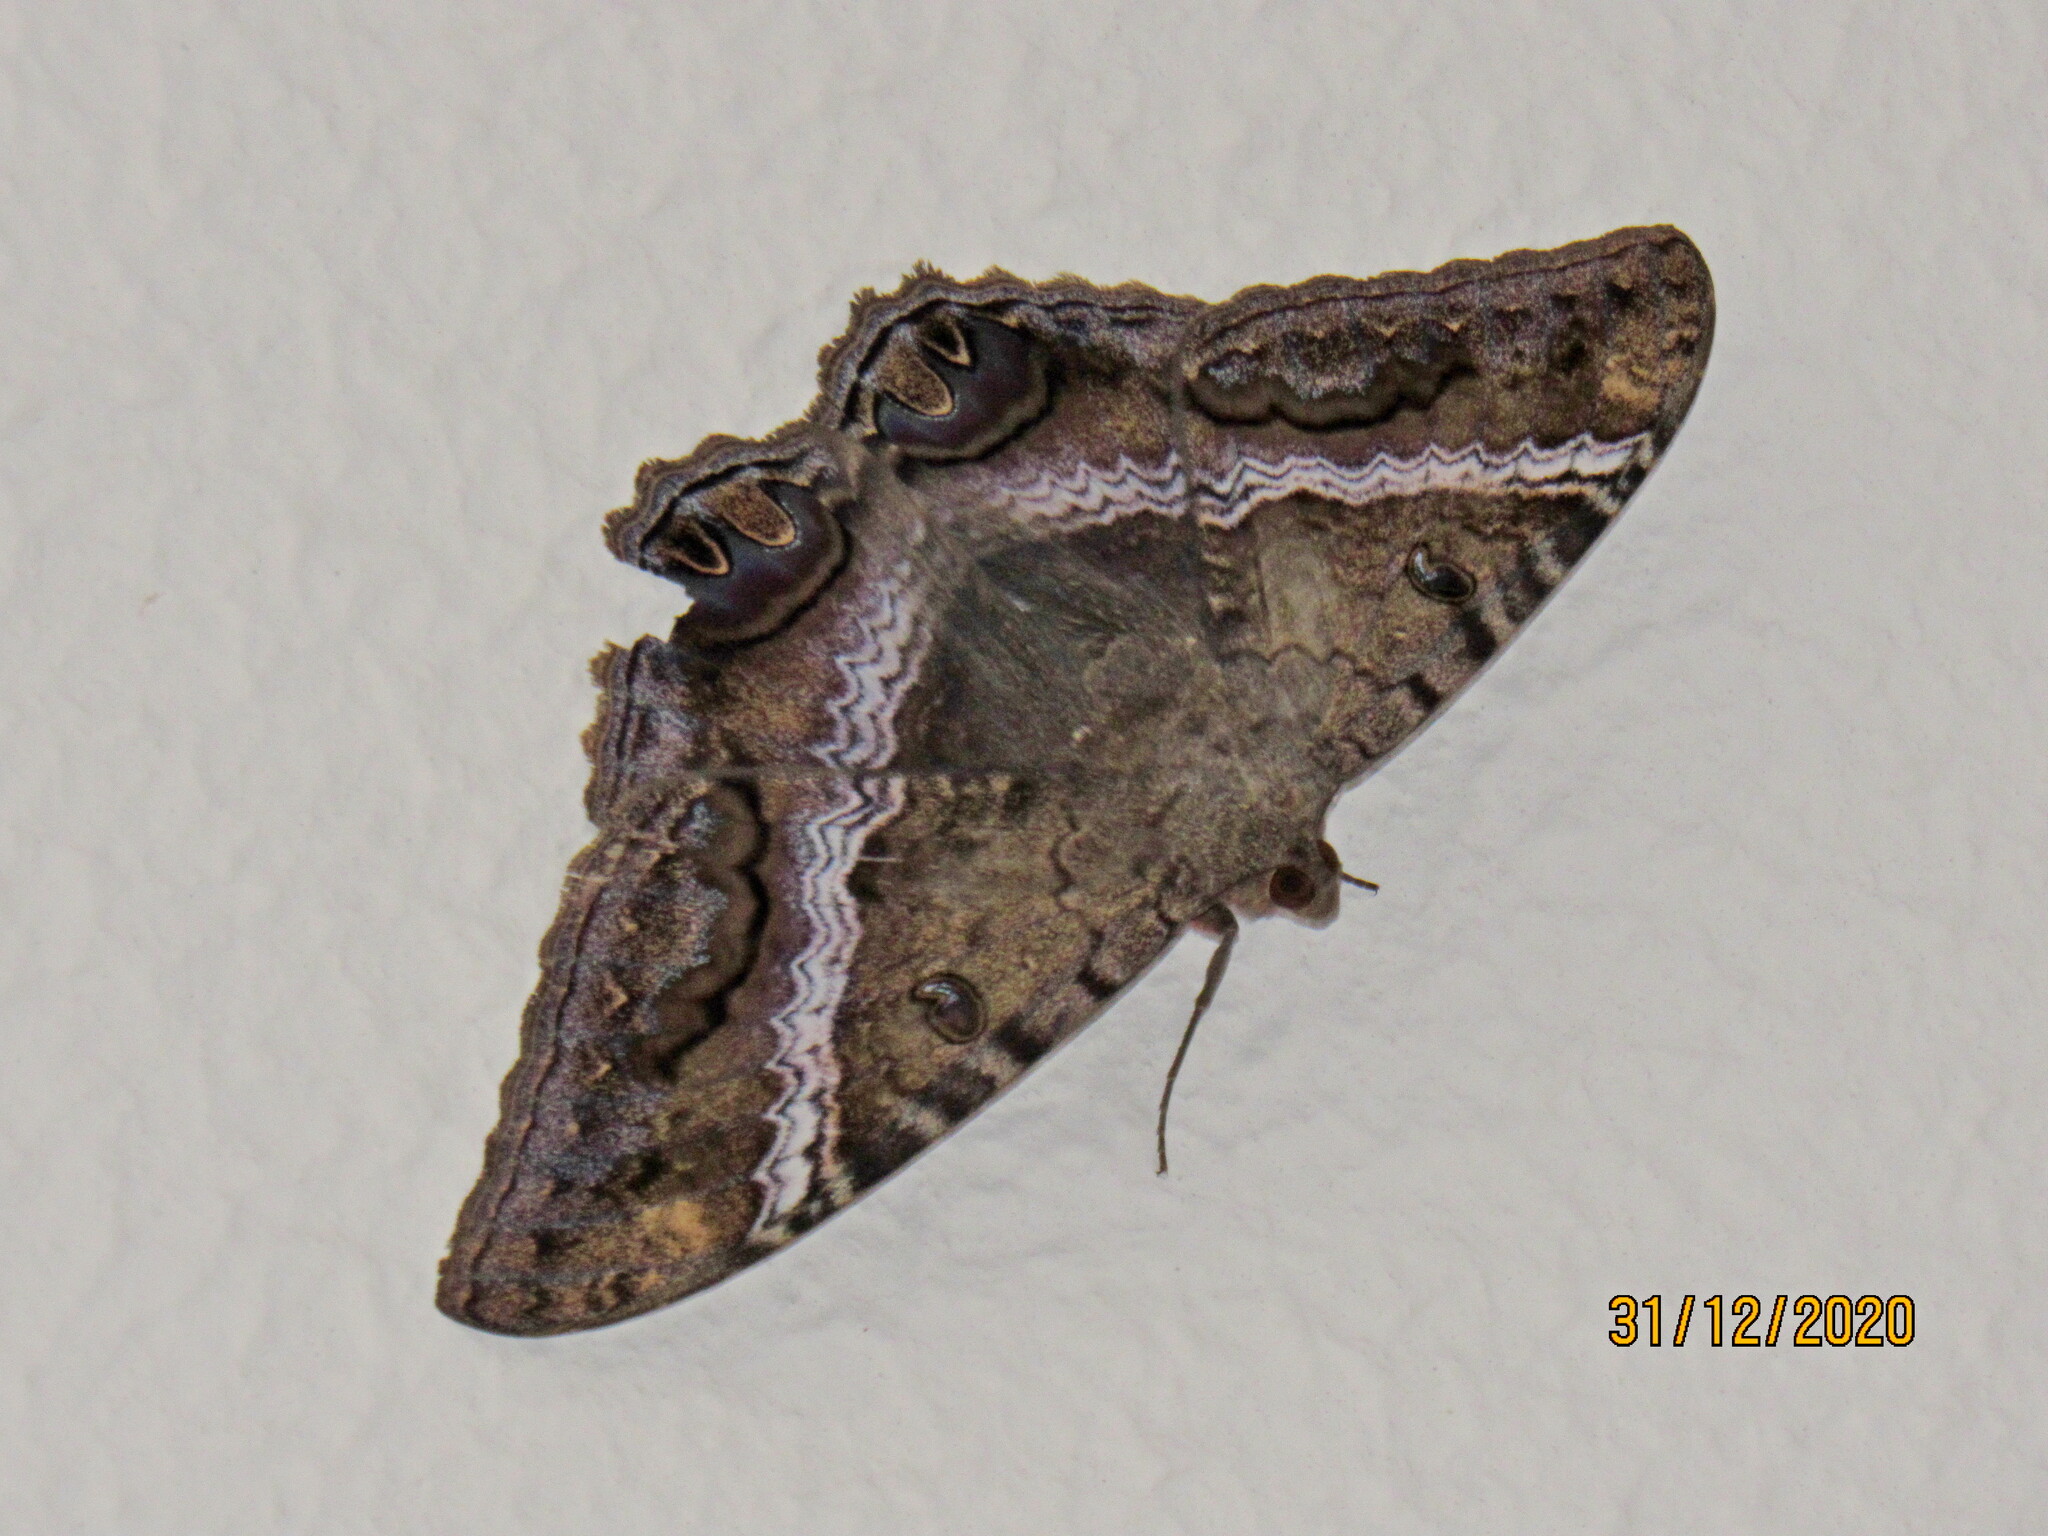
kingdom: Animalia
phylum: Arthropoda
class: Insecta
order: Lepidoptera
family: Erebidae
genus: Ascalapha
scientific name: Ascalapha odorata
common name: Black witch
